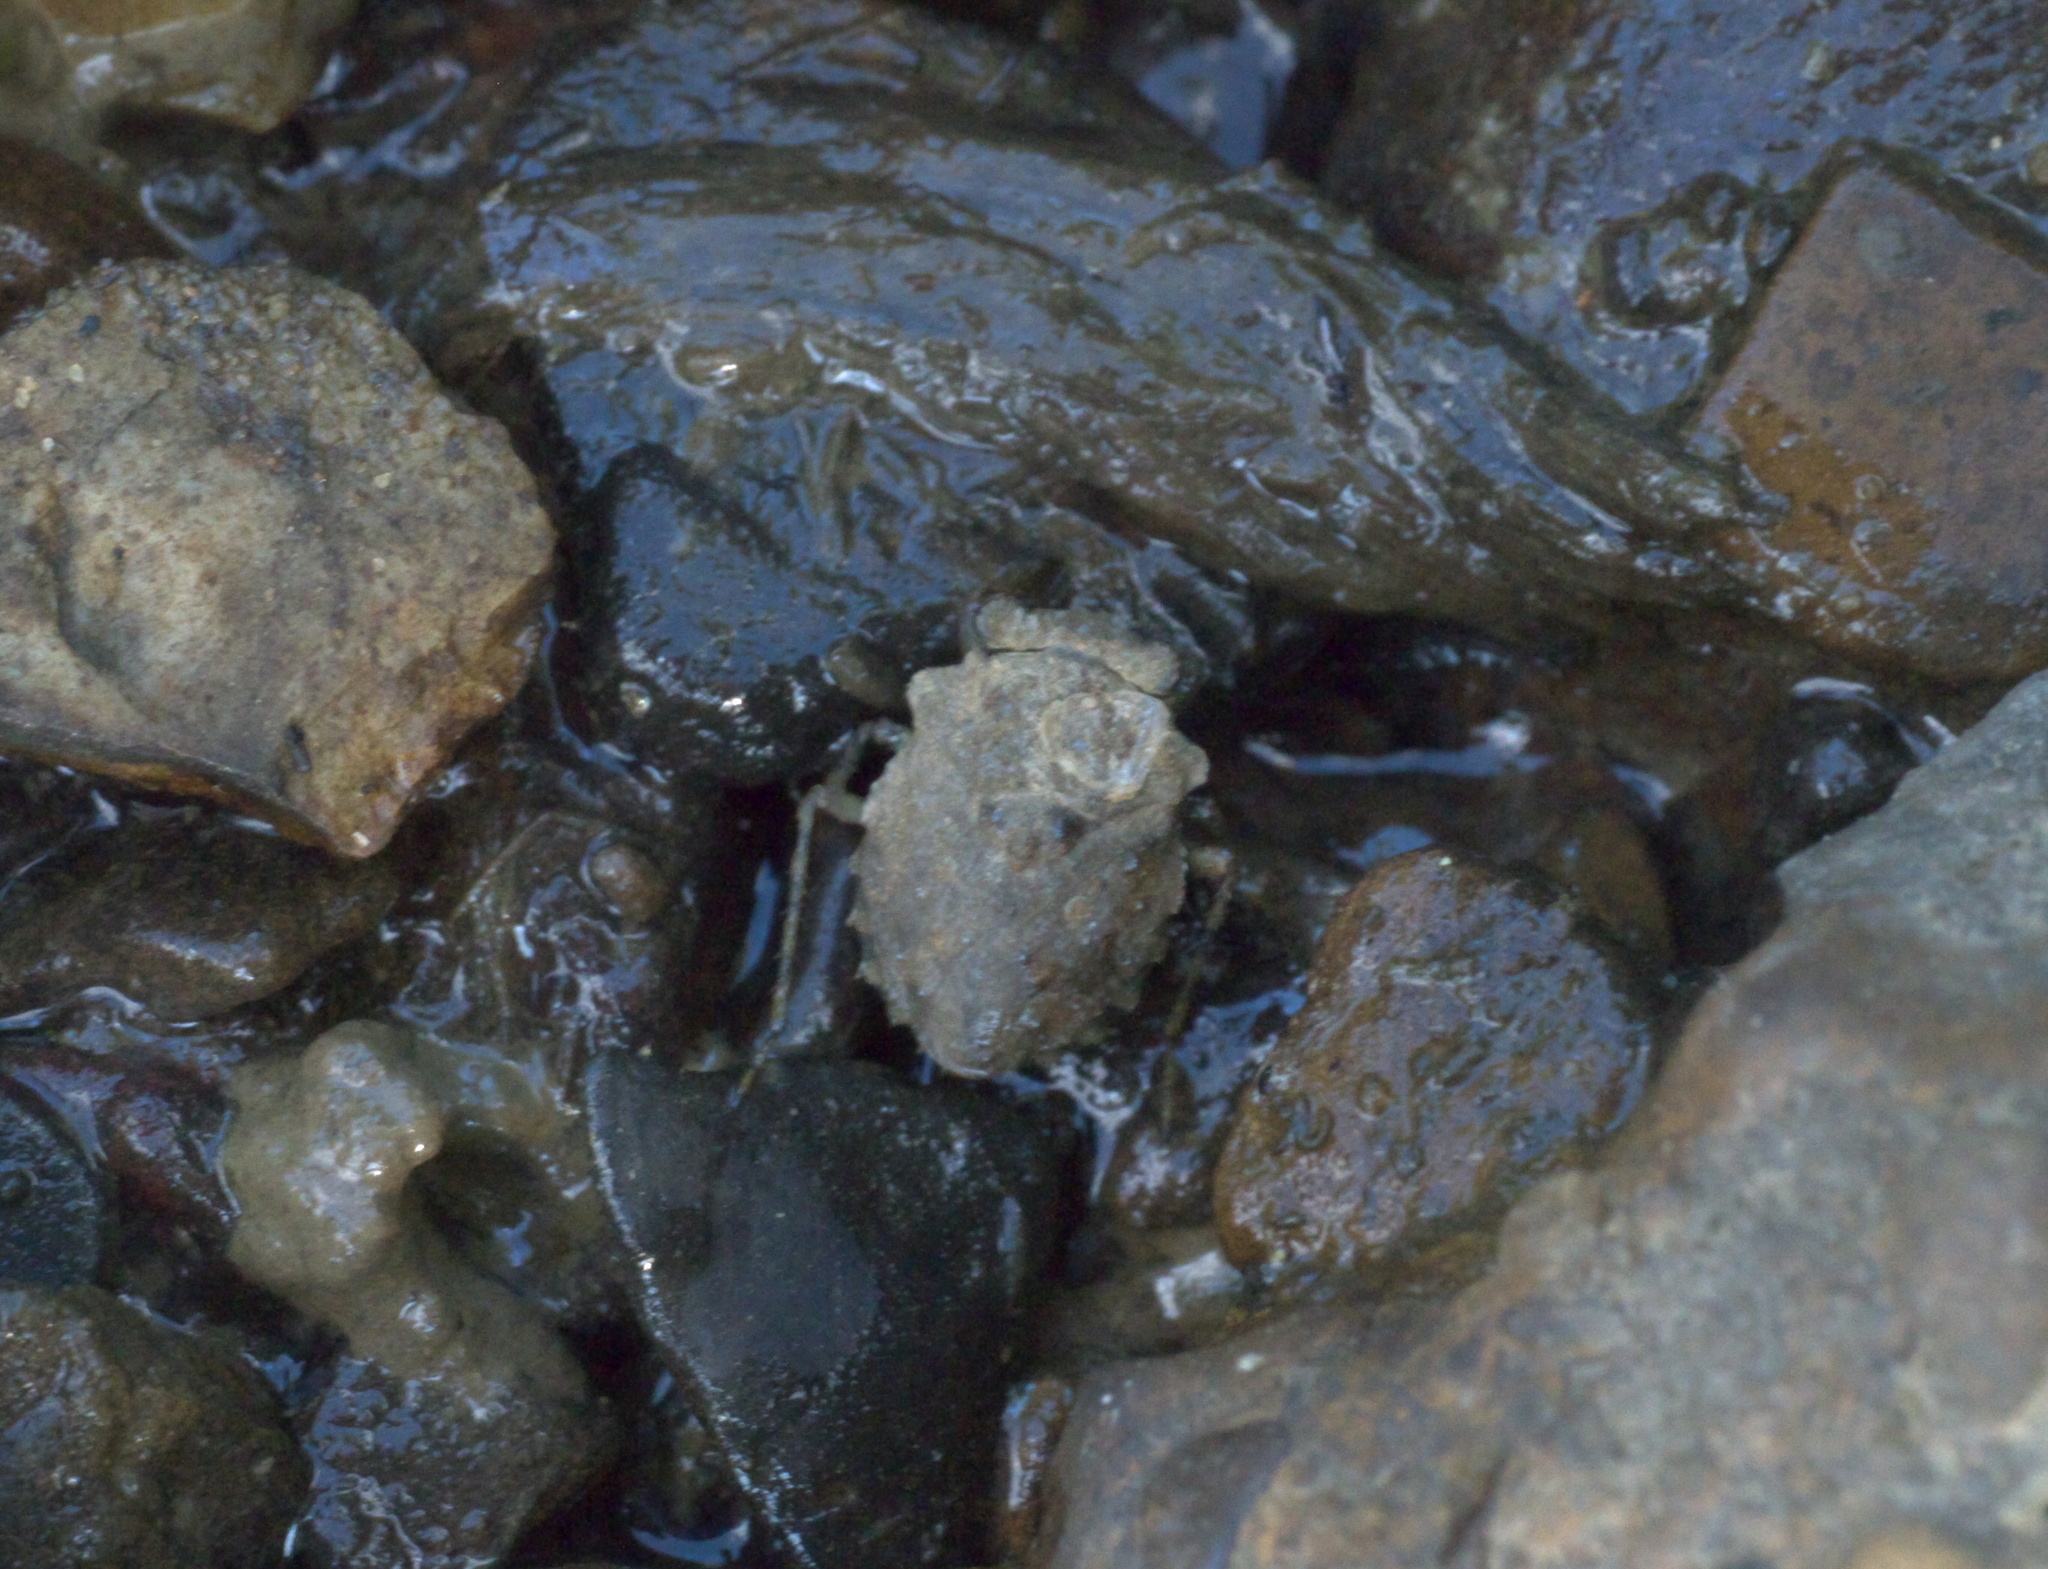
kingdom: Animalia
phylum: Arthropoda
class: Insecta
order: Hemiptera
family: Gelastocoridae
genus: Gelastocoris
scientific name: Gelastocoris oculatus
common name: Toad bug
